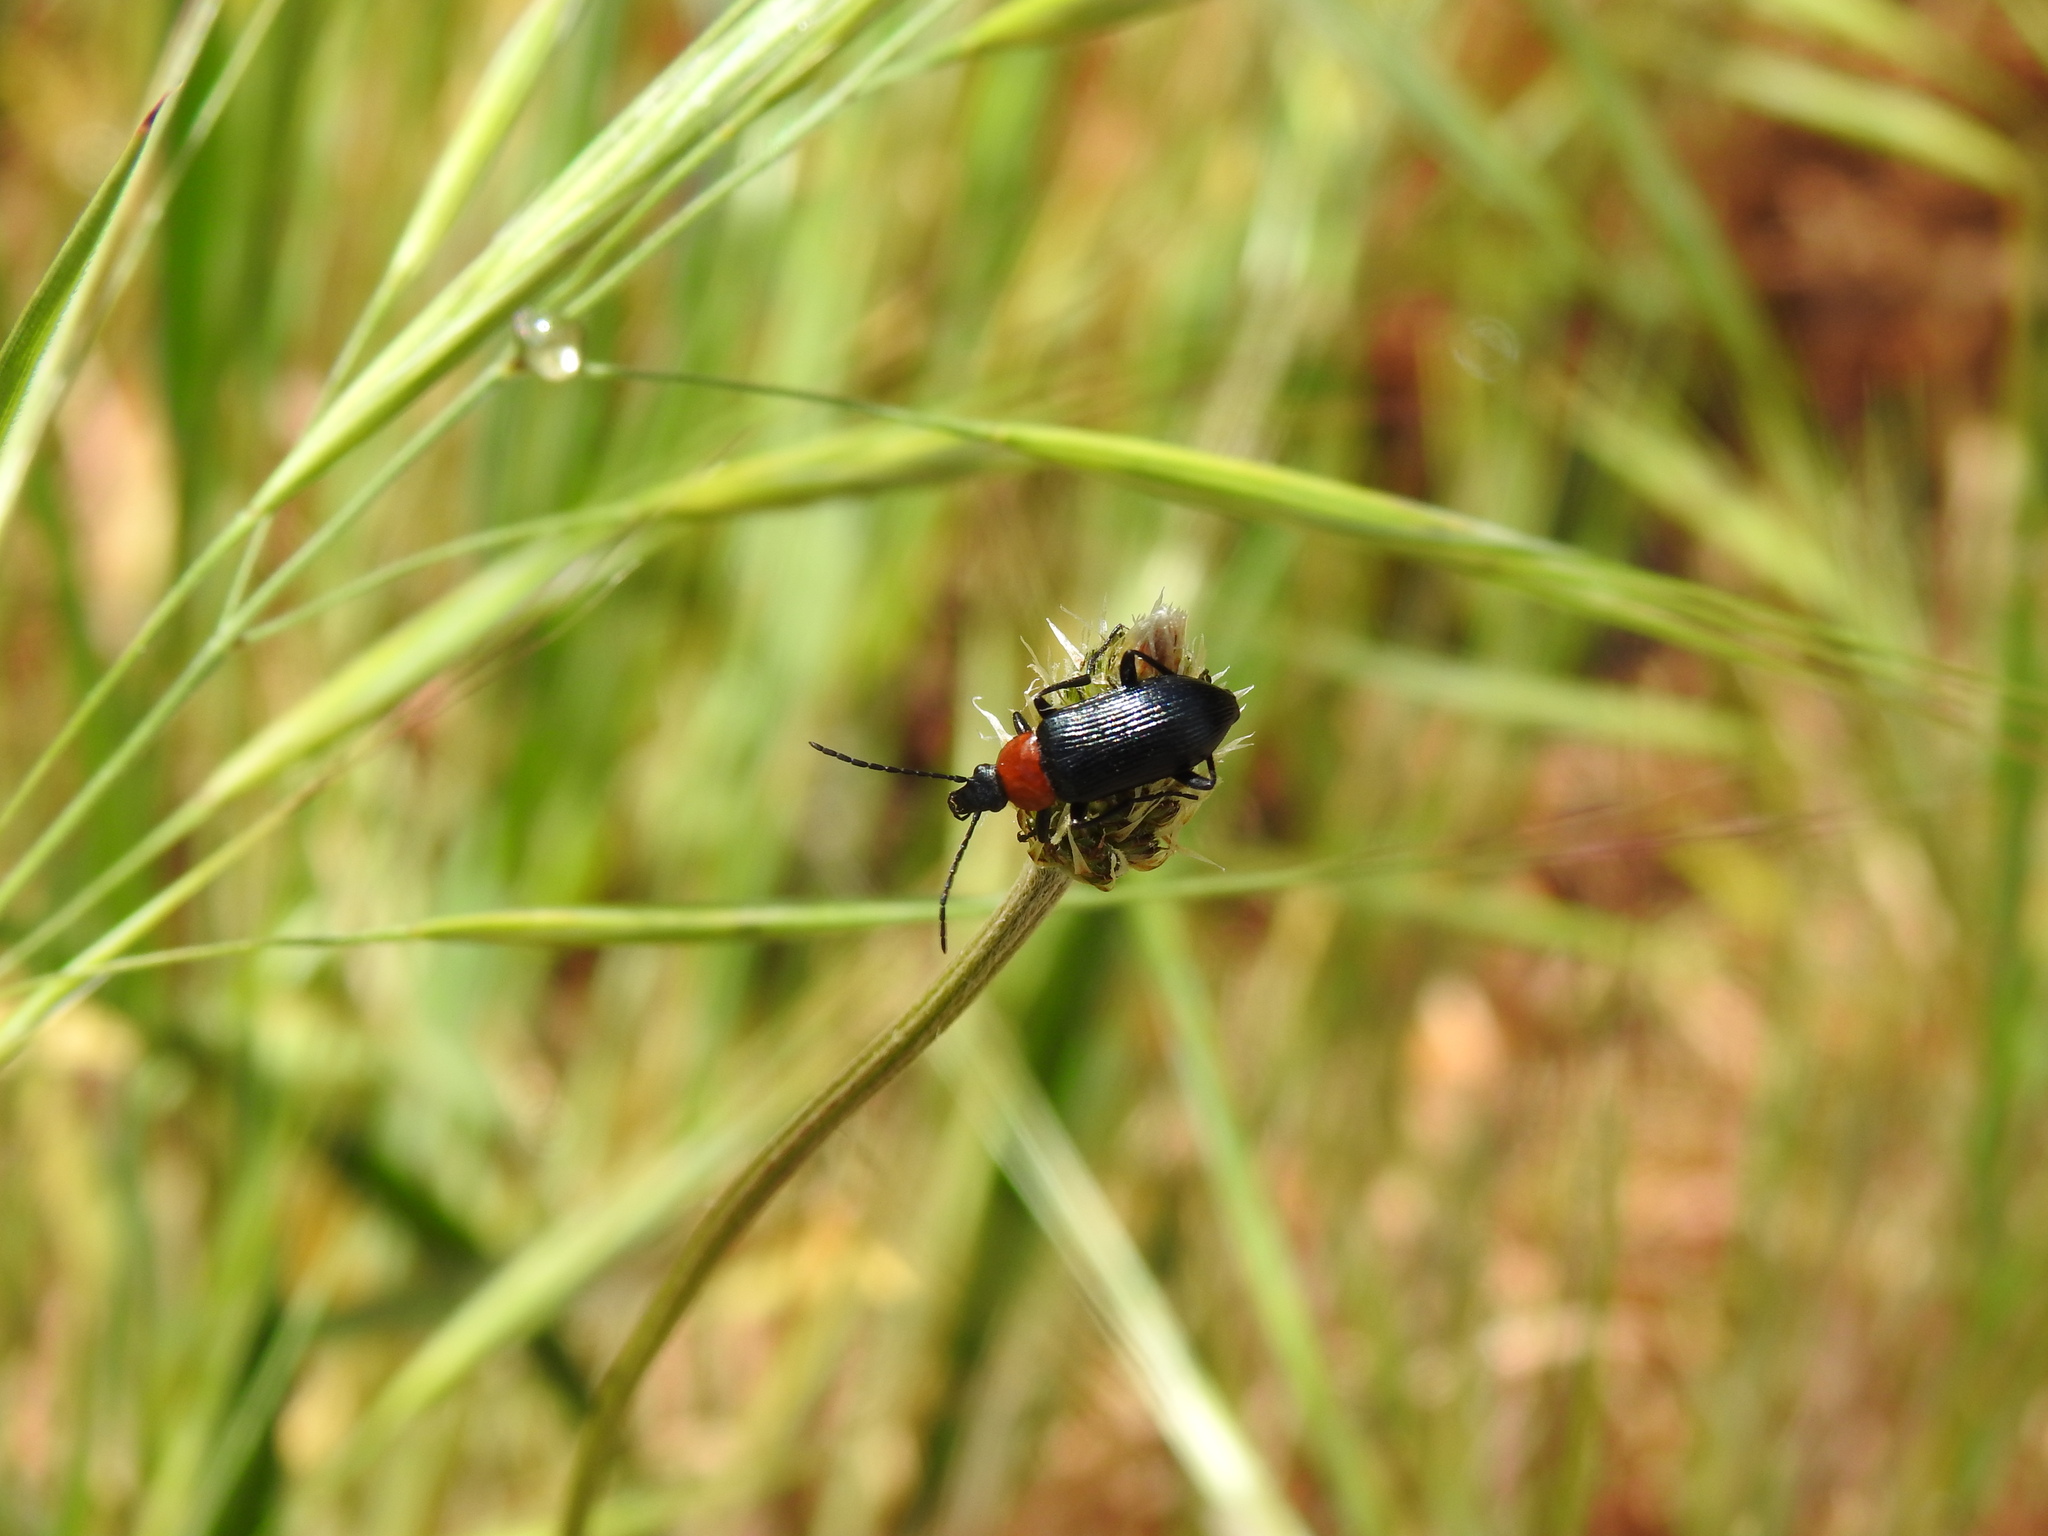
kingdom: Animalia
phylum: Arthropoda
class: Insecta
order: Coleoptera
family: Tenebrionidae
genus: Heliotaurus
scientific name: Heliotaurus ruficollis
